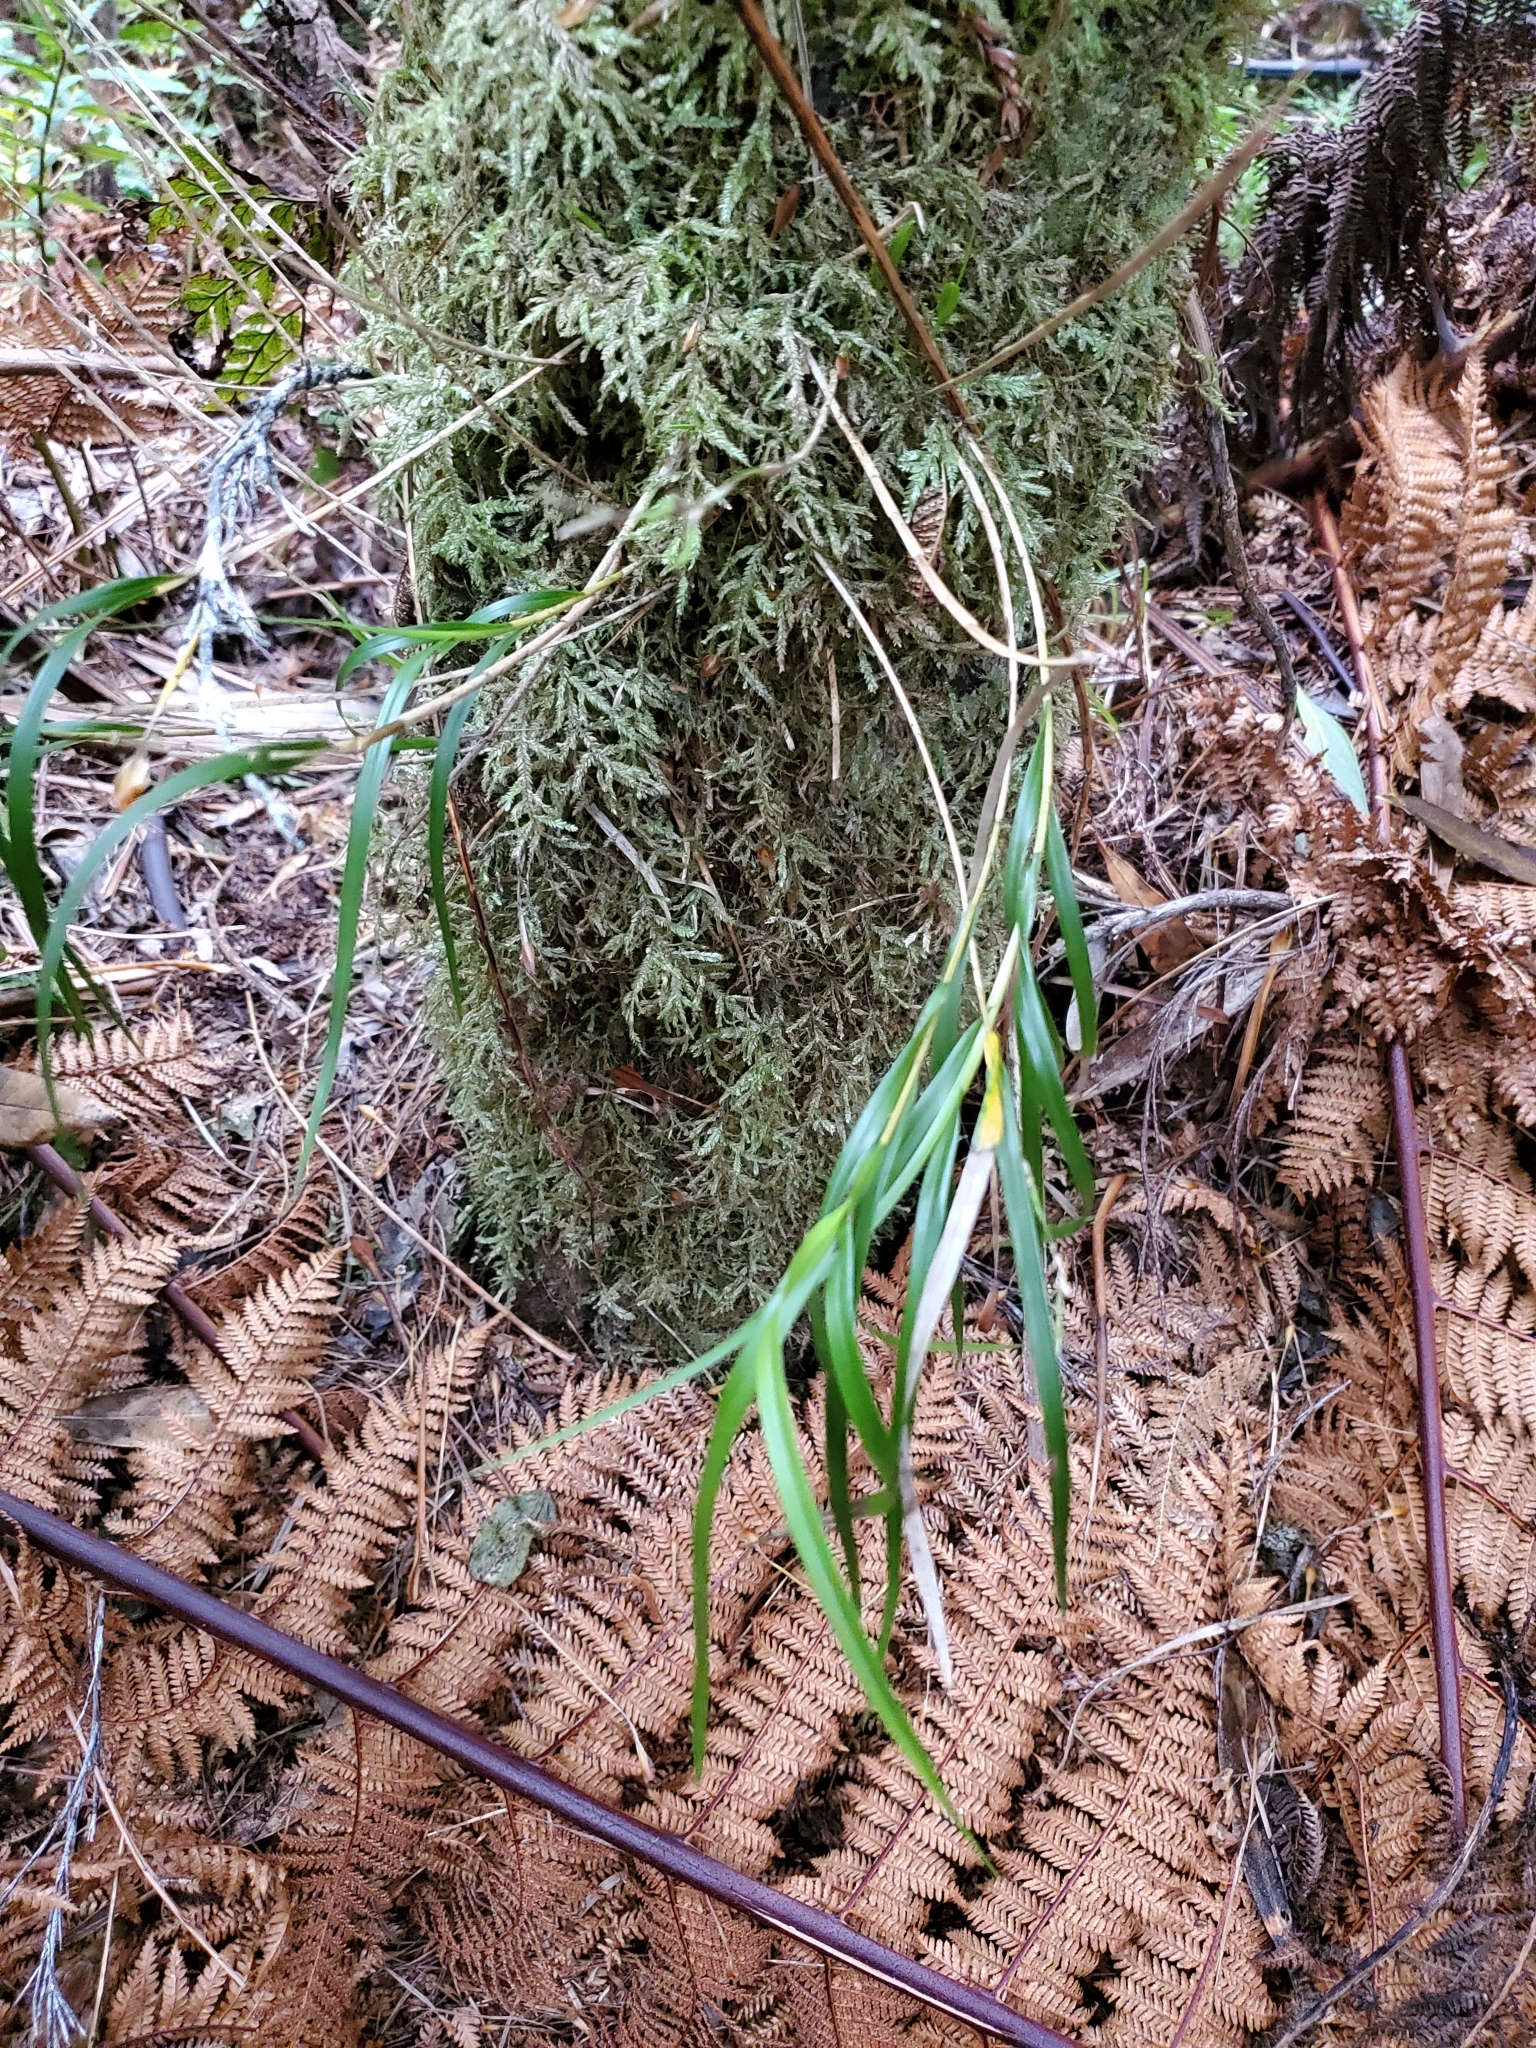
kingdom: Plantae
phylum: Tracheophyta
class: Liliopsida
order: Asparagales
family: Orchidaceae
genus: Earina
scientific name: Earina mucronata
